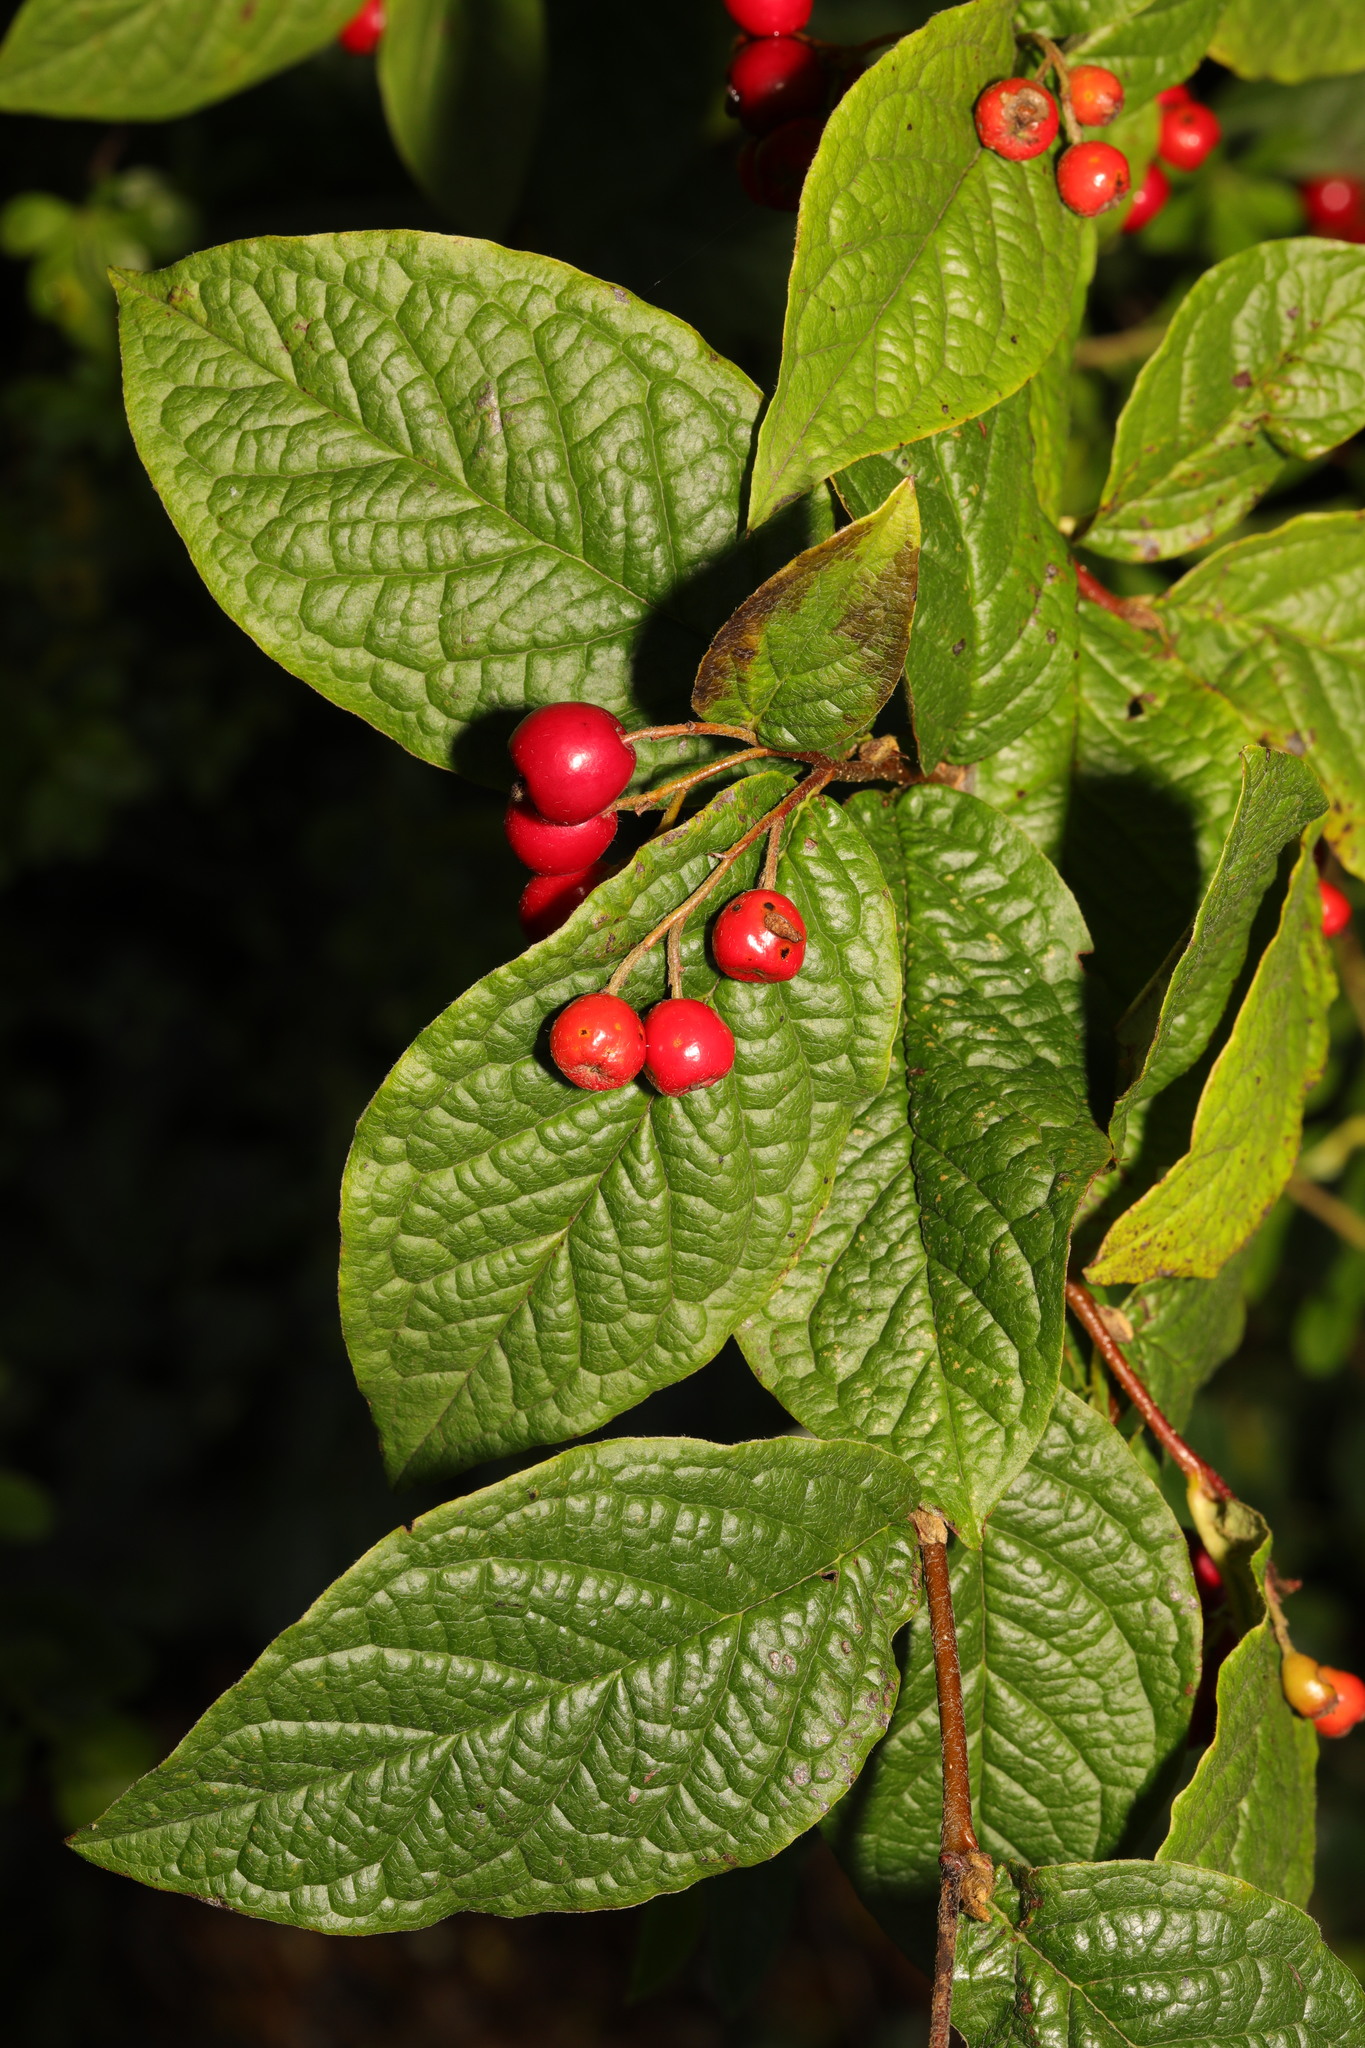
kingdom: Plantae
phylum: Tracheophyta
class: Magnoliopsida
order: Rosales
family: Rosaceae
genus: Cotoneaster
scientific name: Cotoneaster bullatus
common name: Hollyberry cotoneaster
